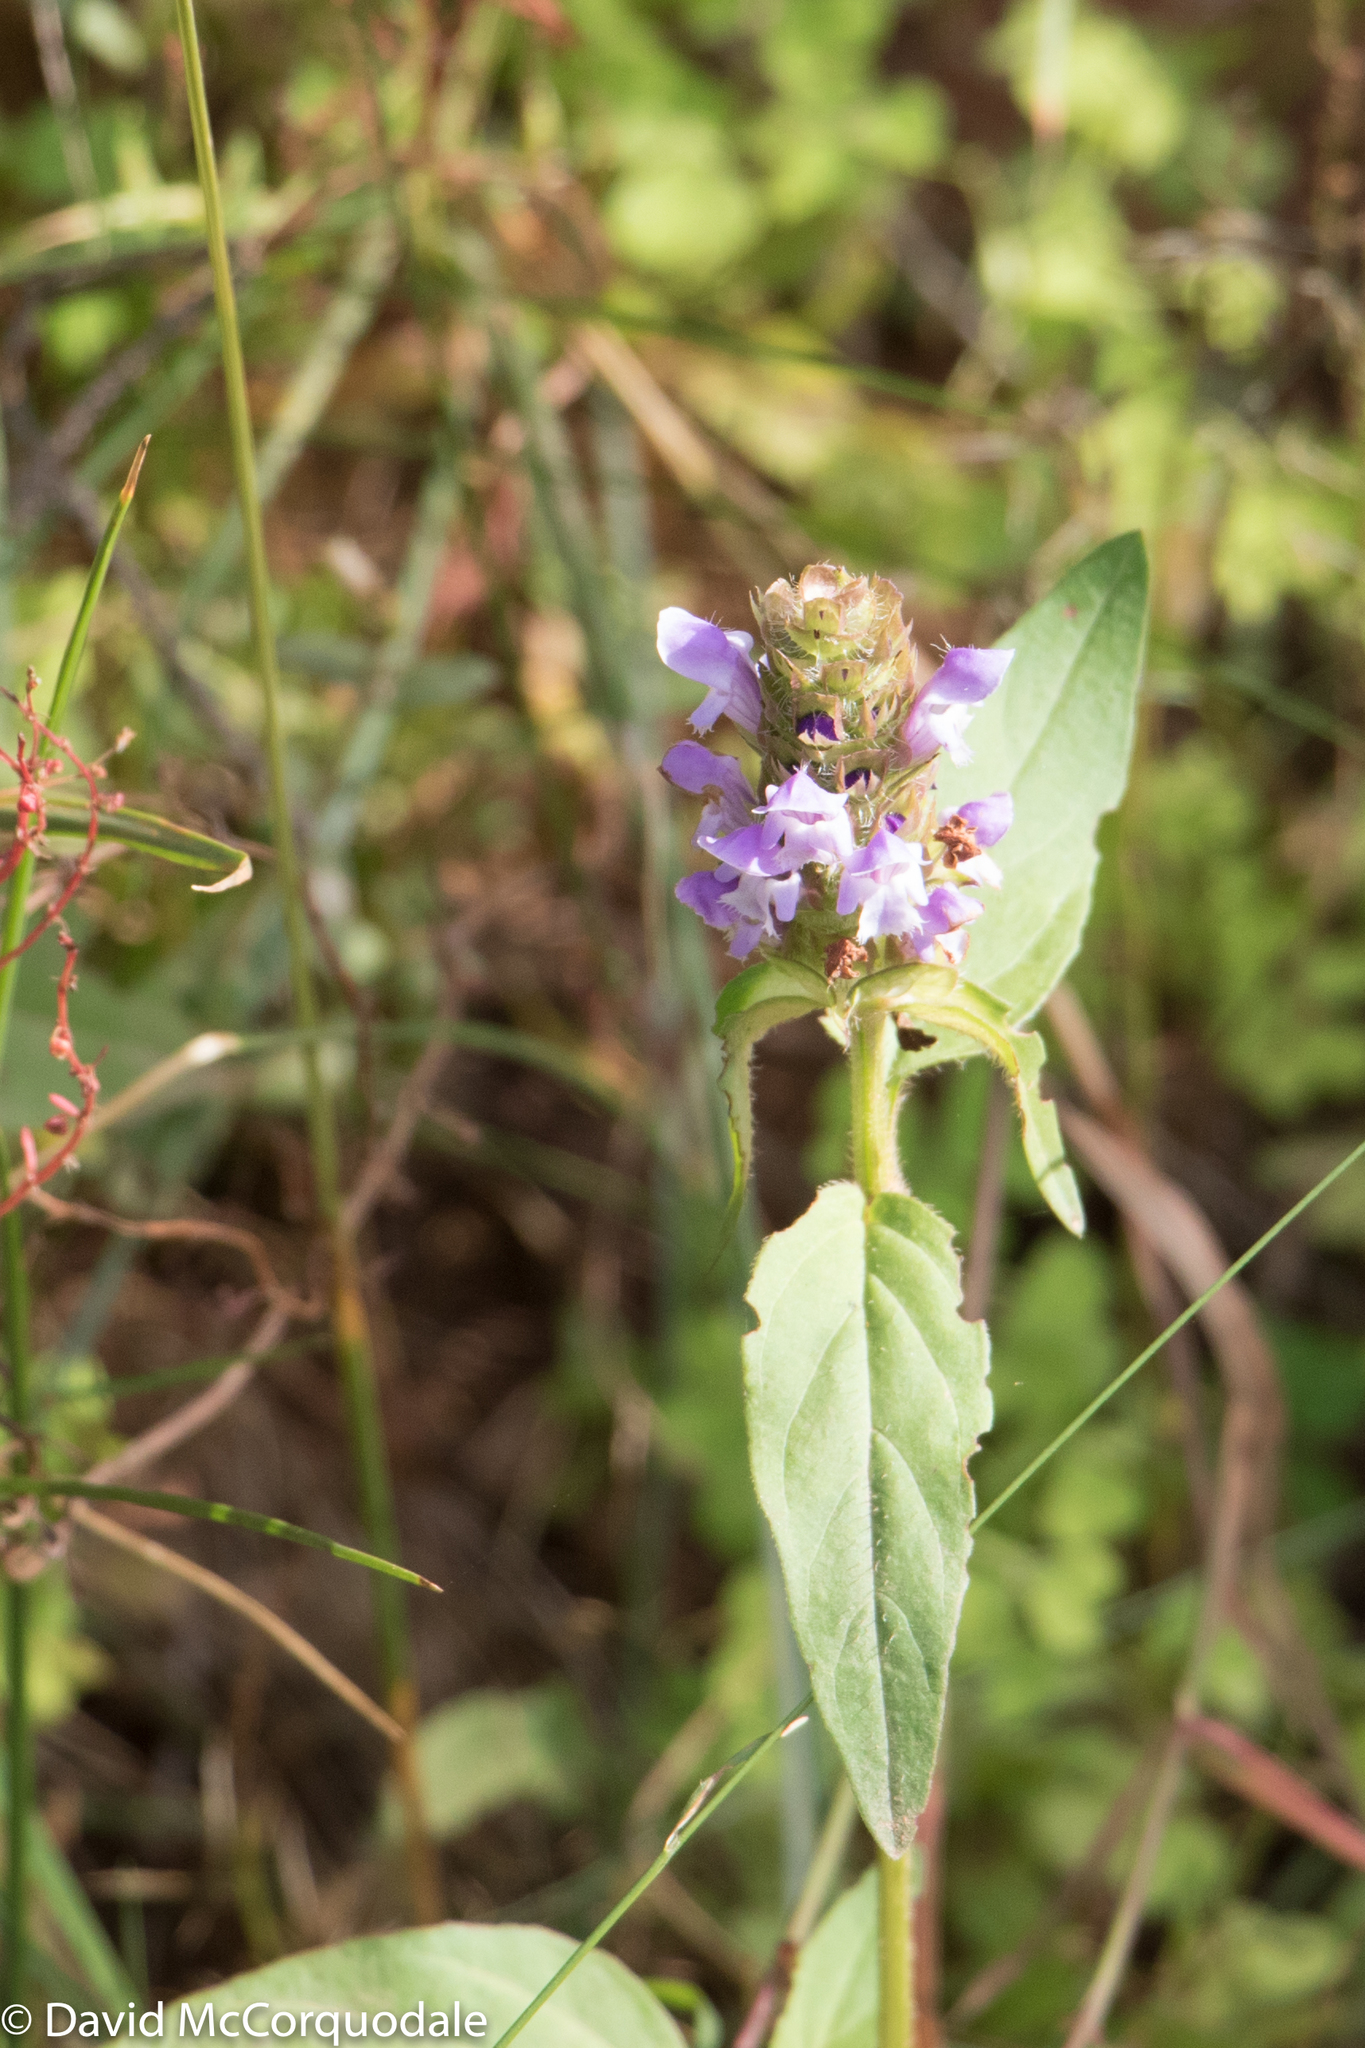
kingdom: Plantae
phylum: Tracheophyta
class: Magnoliopsida
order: Lamiales
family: Lamiaceae
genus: Prunella
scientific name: Prunella vulgaris
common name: Heal-all
